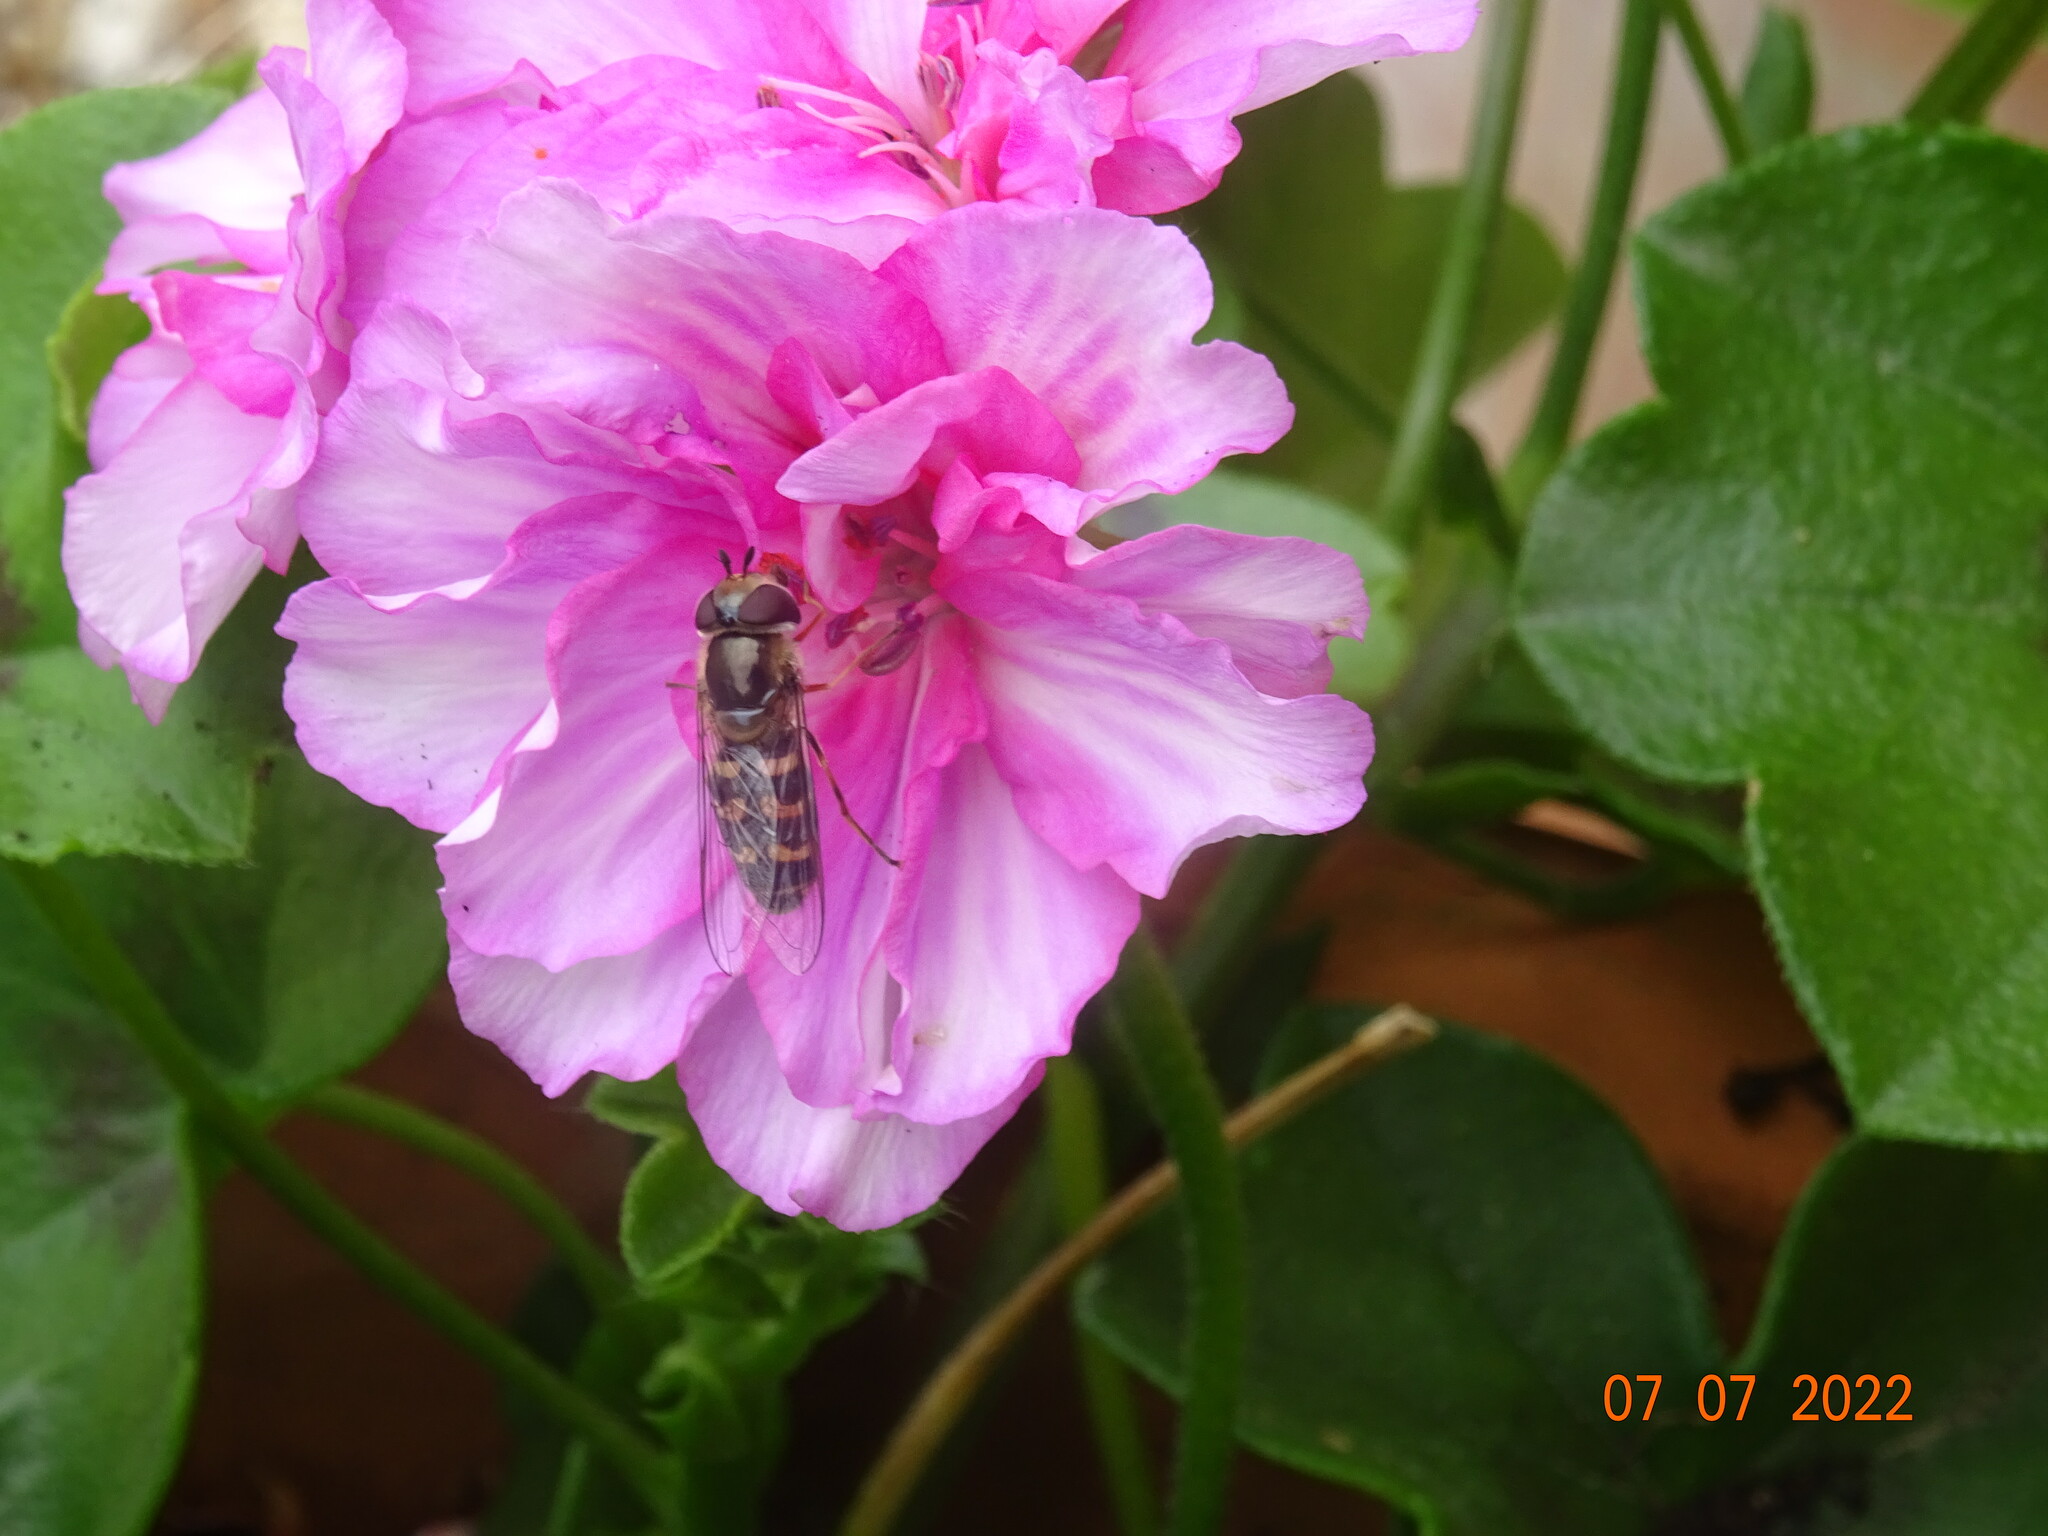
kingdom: Animalia
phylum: Arthropoda
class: Insecta
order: Diptera
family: Syrphidae
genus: Scaeva
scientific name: Scaeva pyrastri
